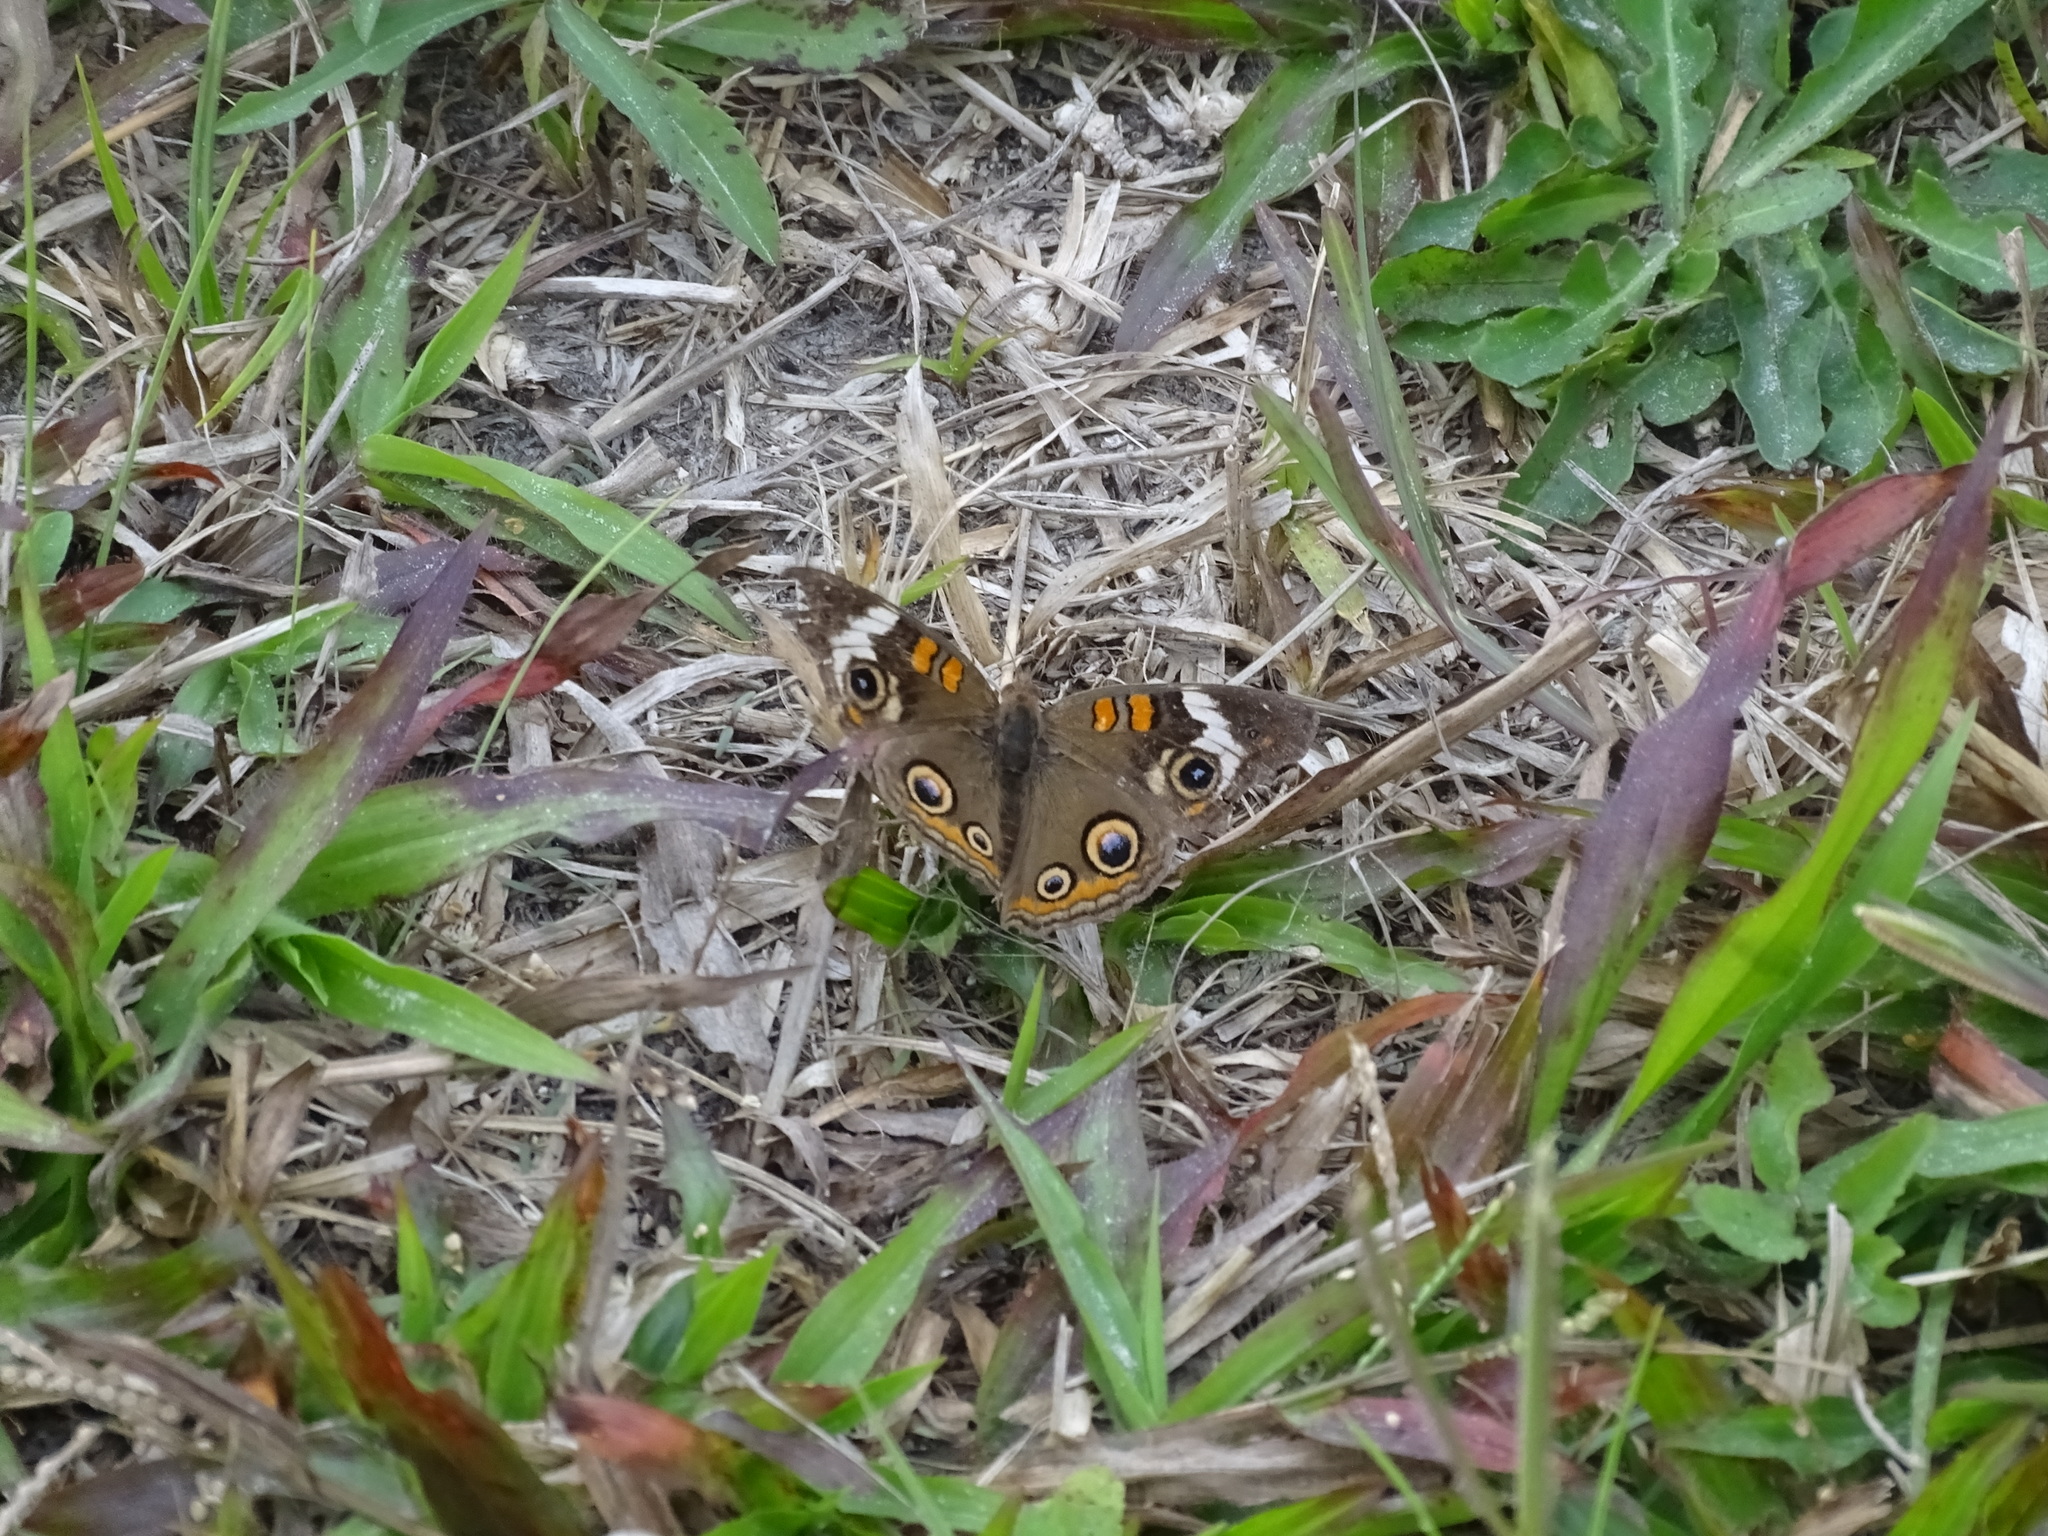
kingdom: Animalia
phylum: Arthropoda
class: Insecta
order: Lepidoptera
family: Nymphalidae
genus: Junonia
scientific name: Junonia coenia
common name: Common buckeye
